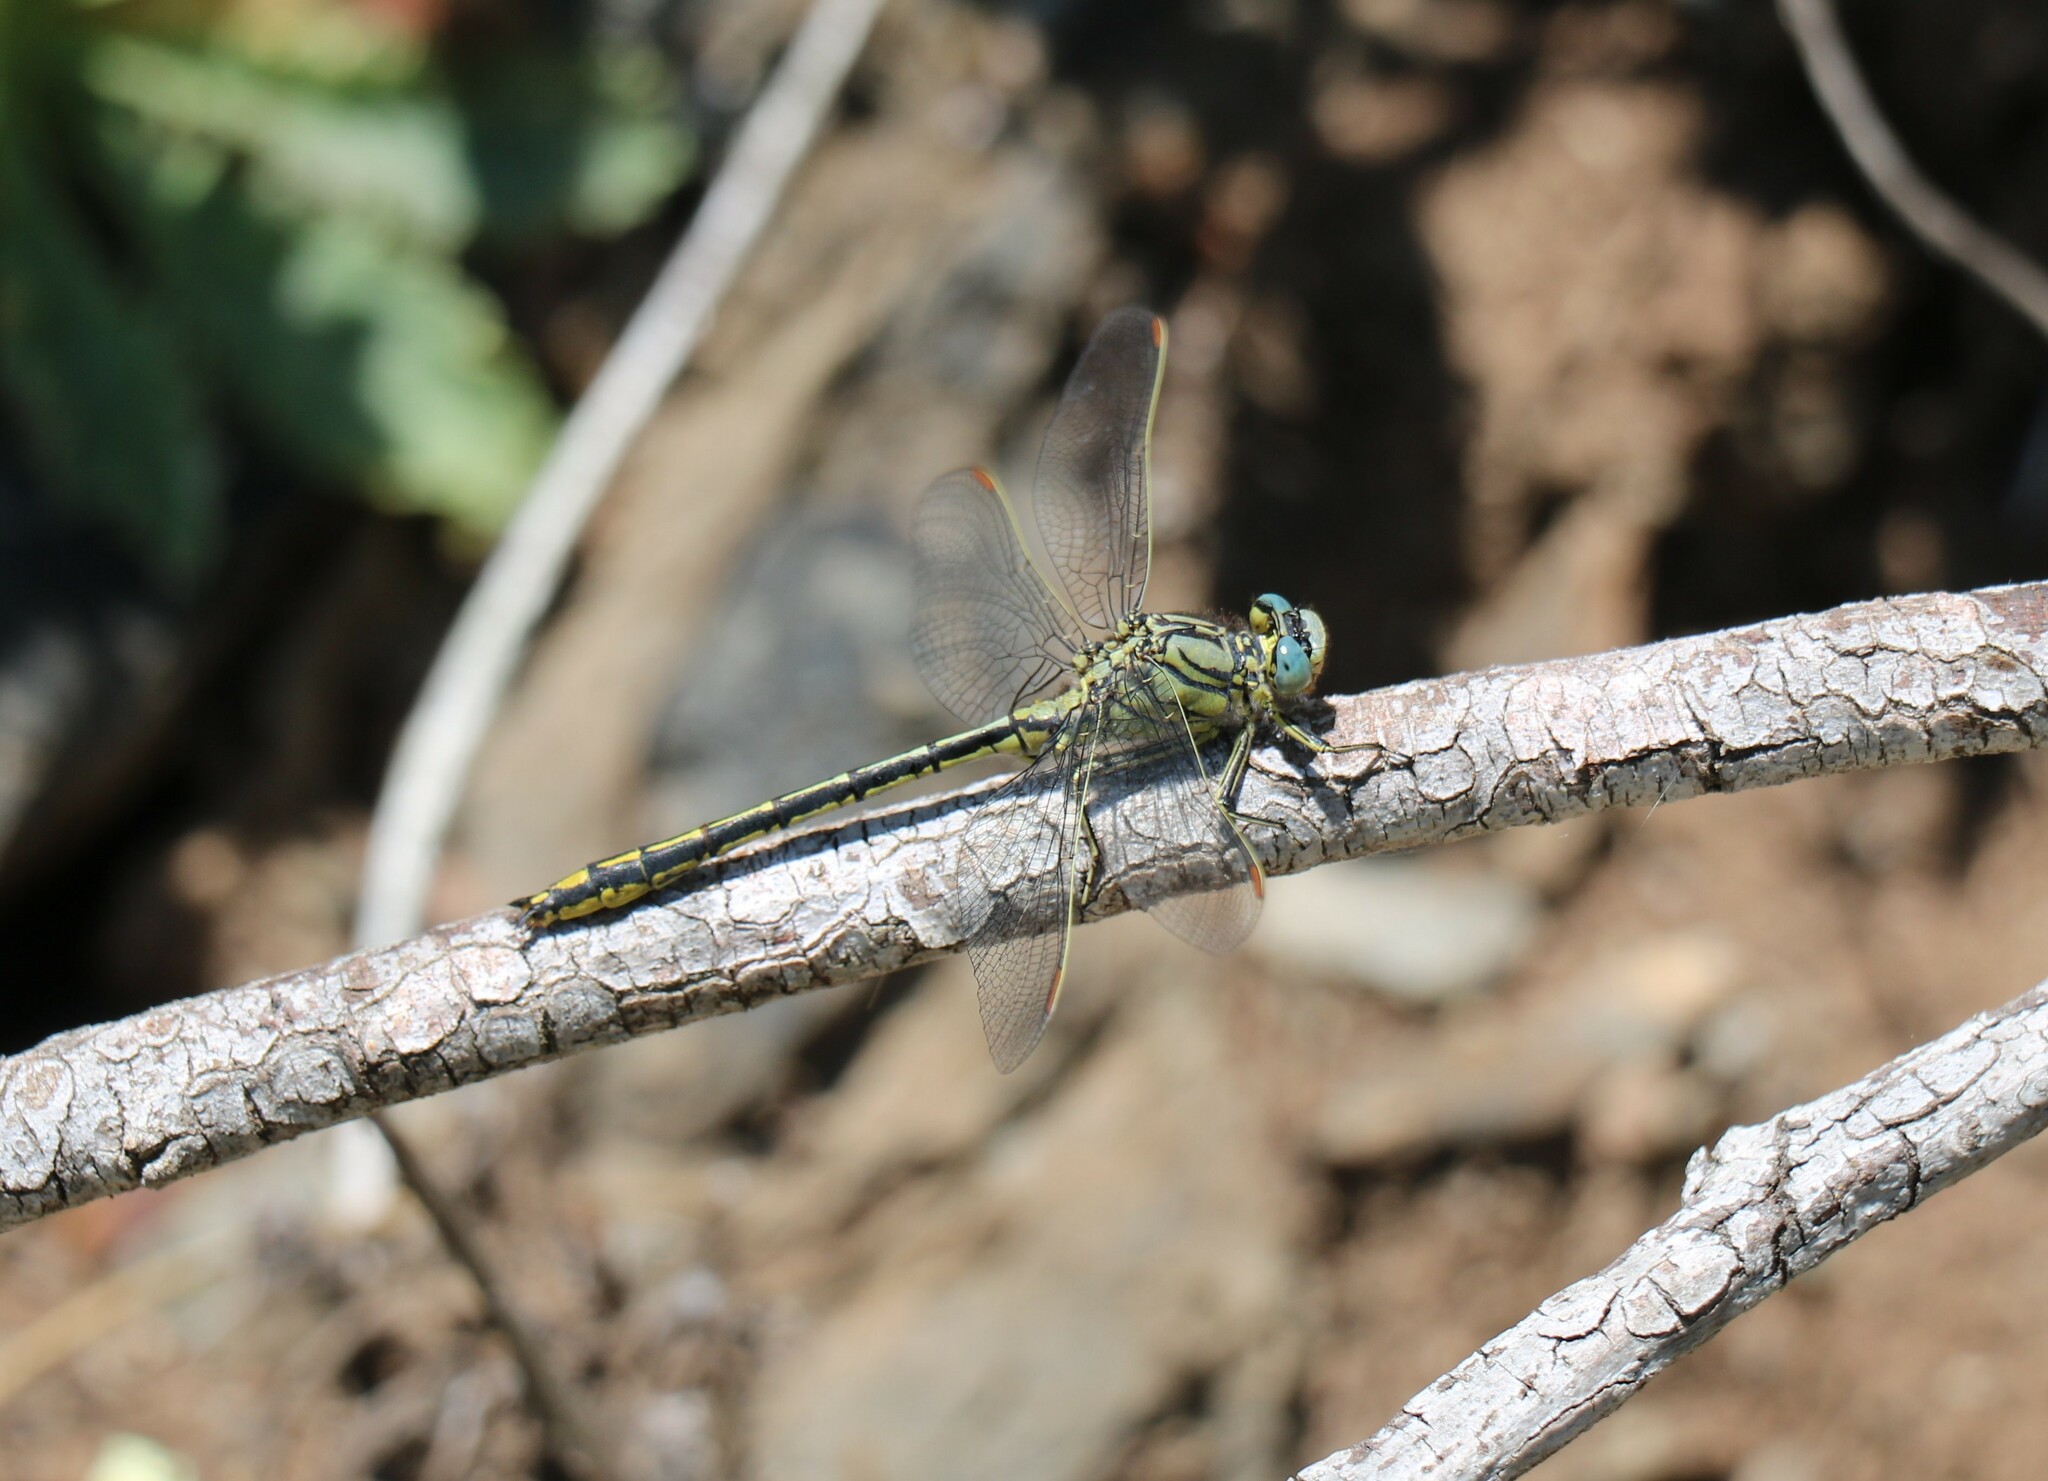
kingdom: Animalia
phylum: Arthropoda
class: Insecta
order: Odonata
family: Gomphidae
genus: Gomphus
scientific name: Gomphus pulchellus
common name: Western clubtail
